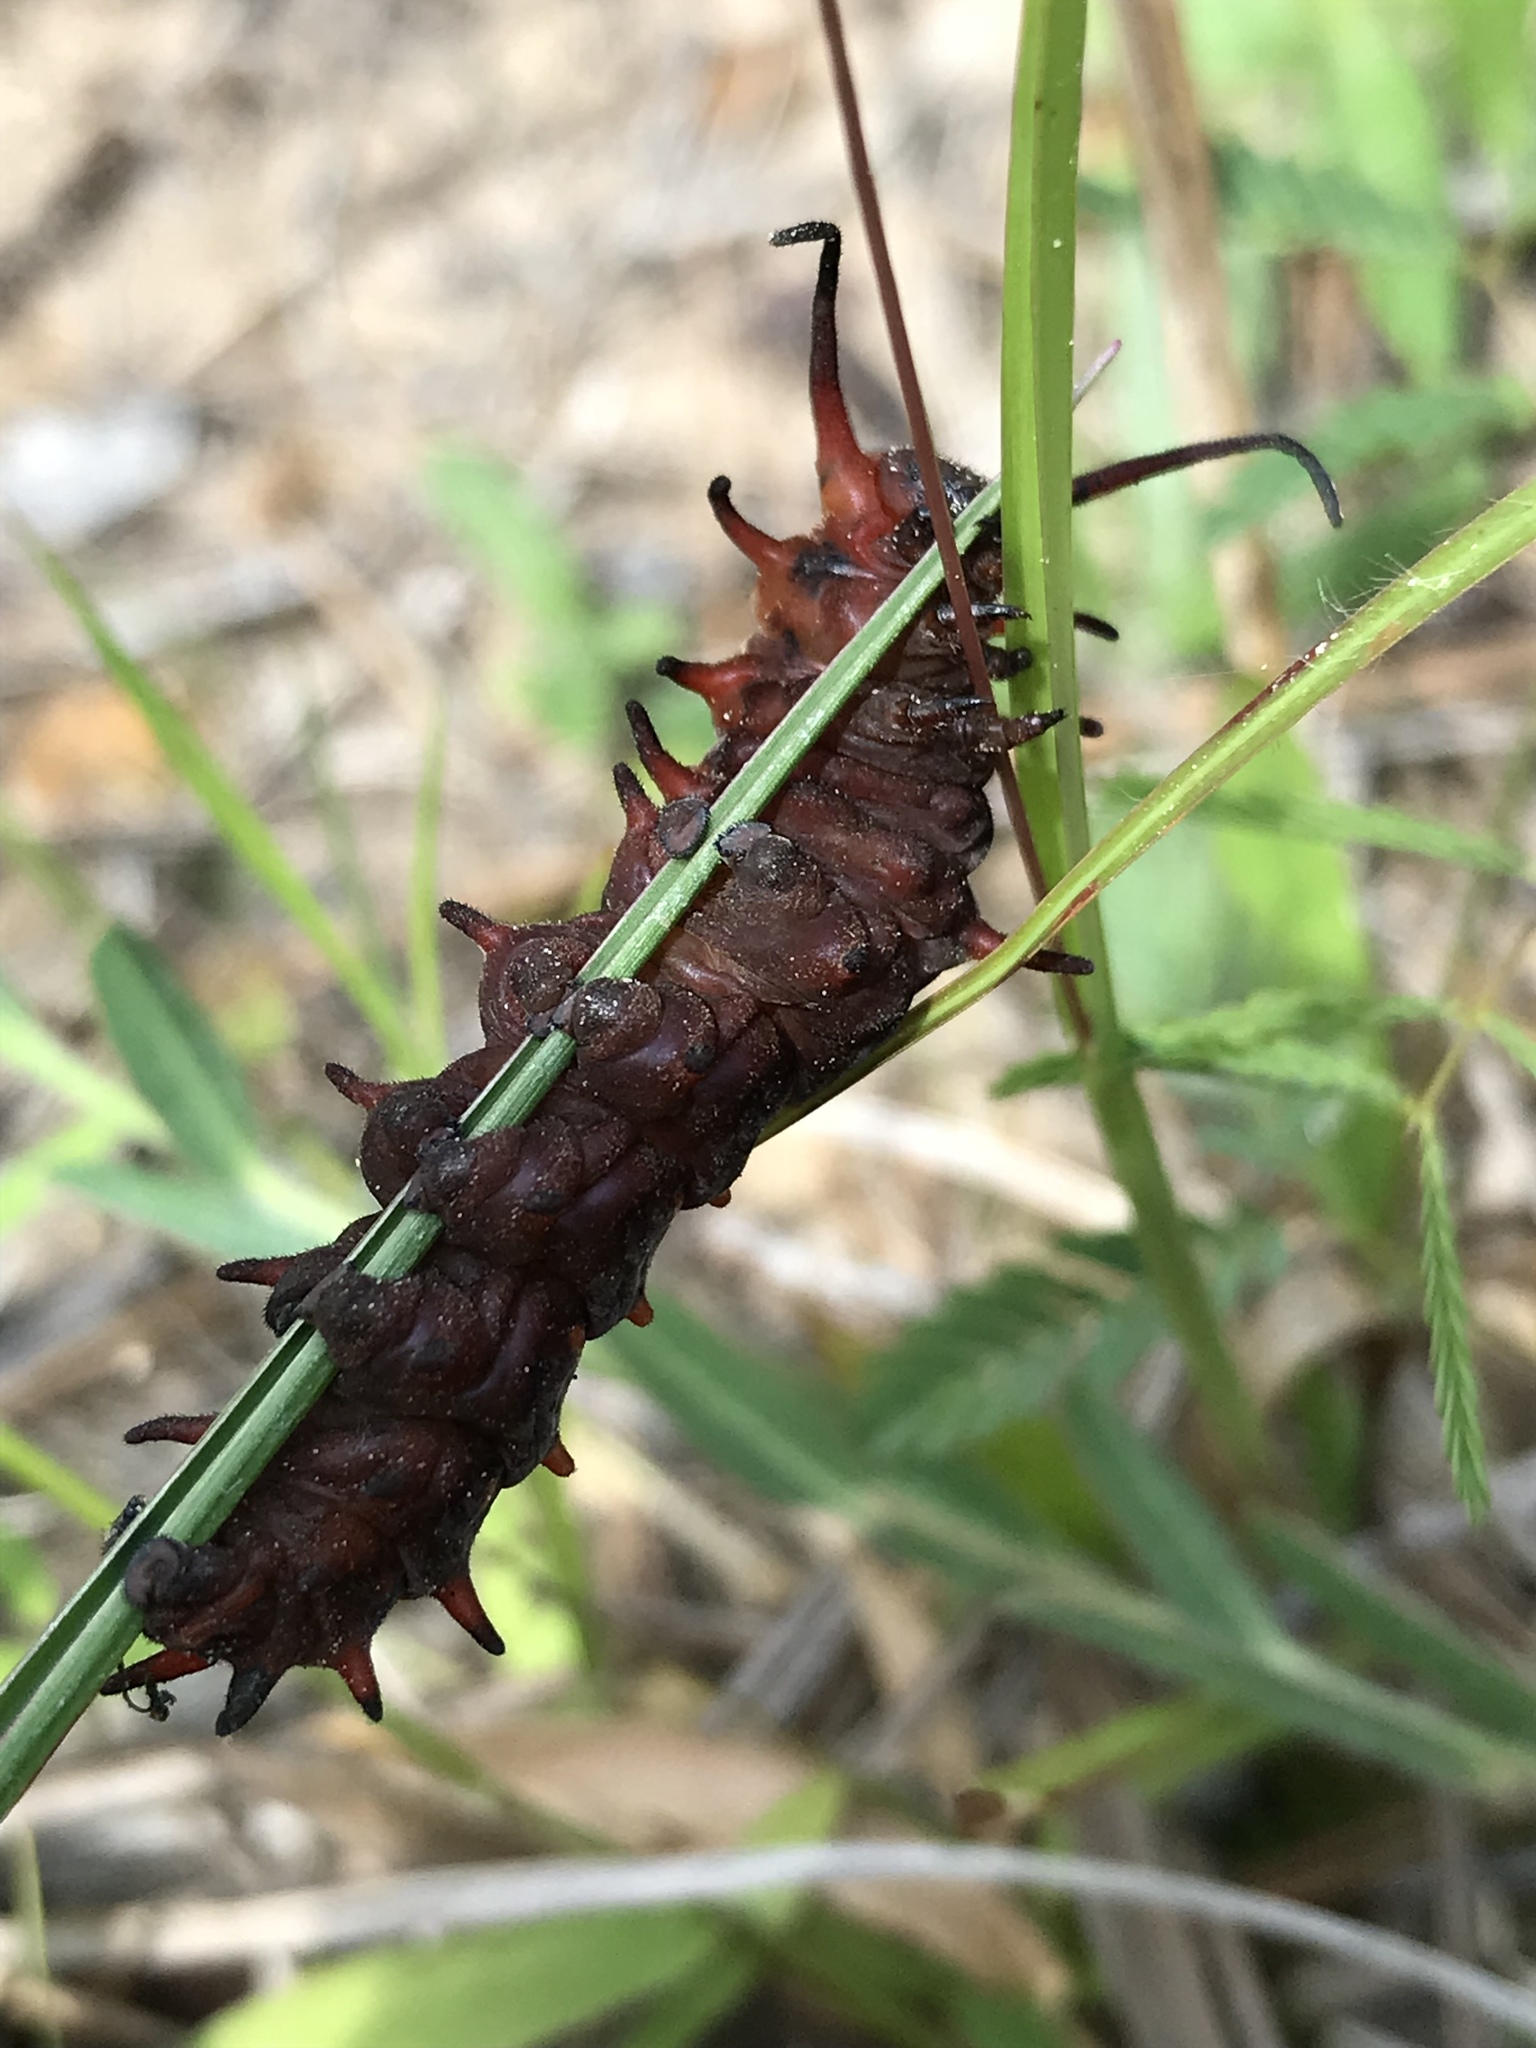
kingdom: Animalia
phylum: Arthropoda
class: Insecta
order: Lepidoptera
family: Papilionidae
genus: Battus
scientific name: Battus philenor
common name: Pipevine swallowtail
